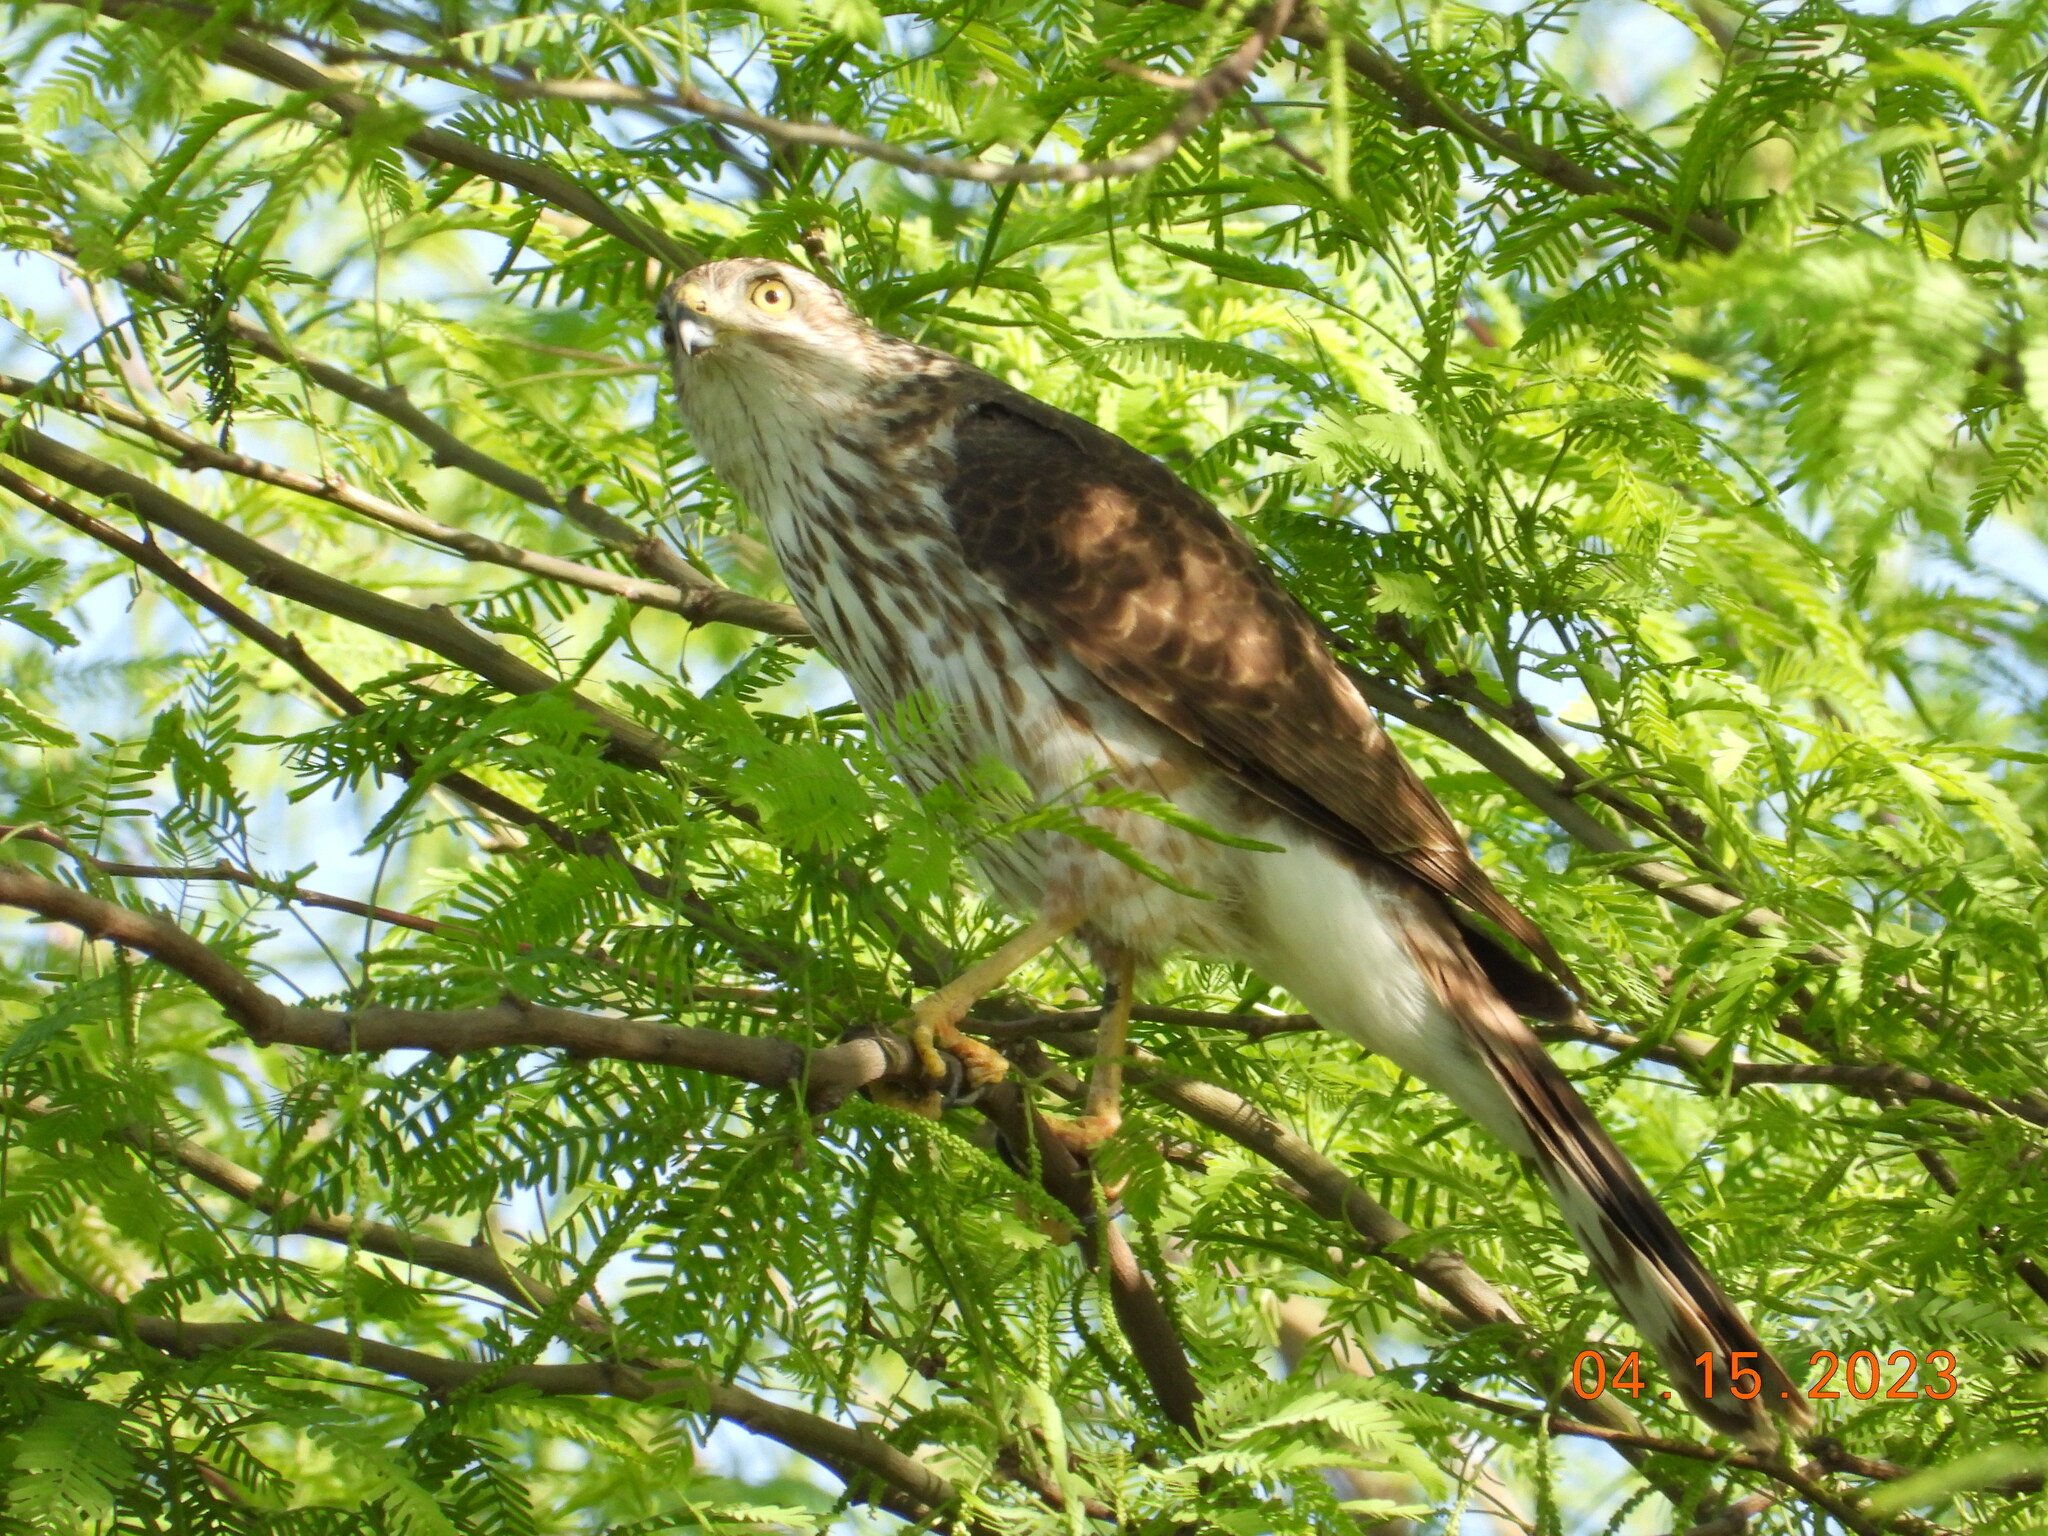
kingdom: Animalia
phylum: Chordata
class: Aves
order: Accipitriformes
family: Accipitridae
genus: Accipiter
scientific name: Accipiter cooperii
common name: Cooper's hawk
